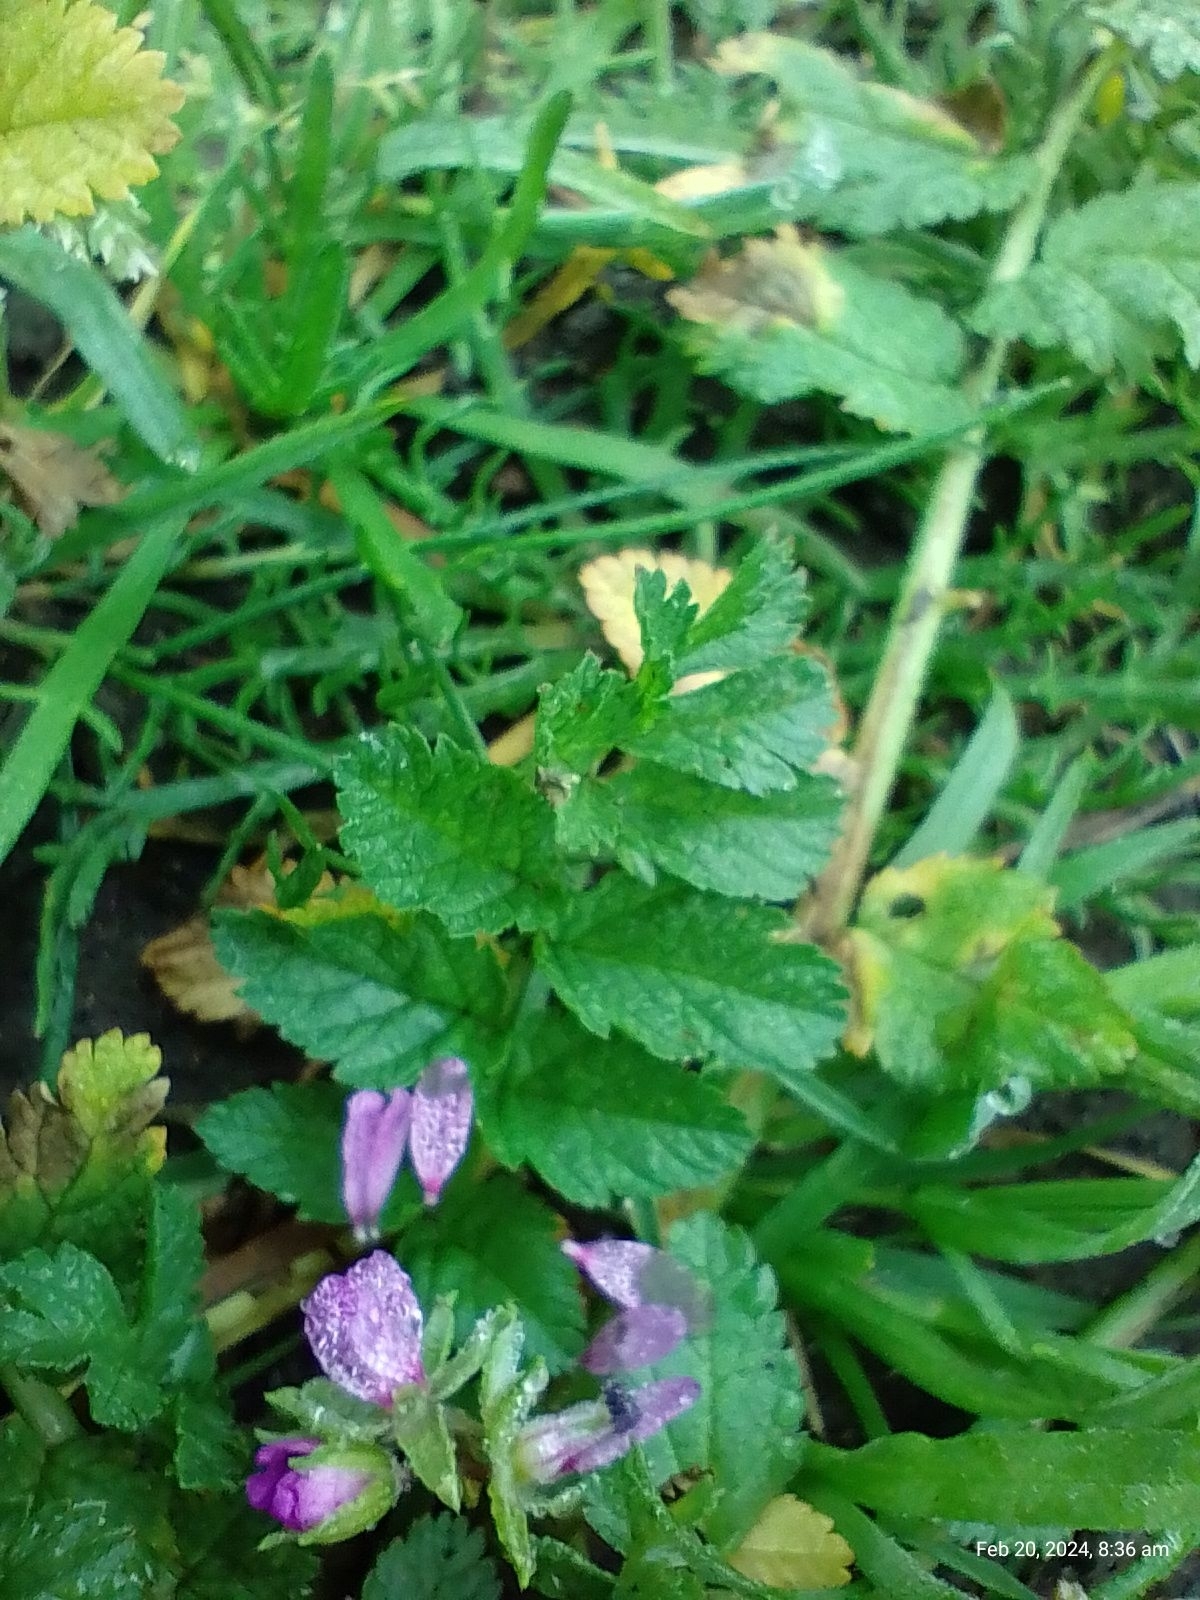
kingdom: Plantae
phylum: Tracheophyta
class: Magnoliopsida
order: Geraniales
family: Geraniaceae
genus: Erodium
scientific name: Erodium moschatum
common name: Musk stork's-bill
